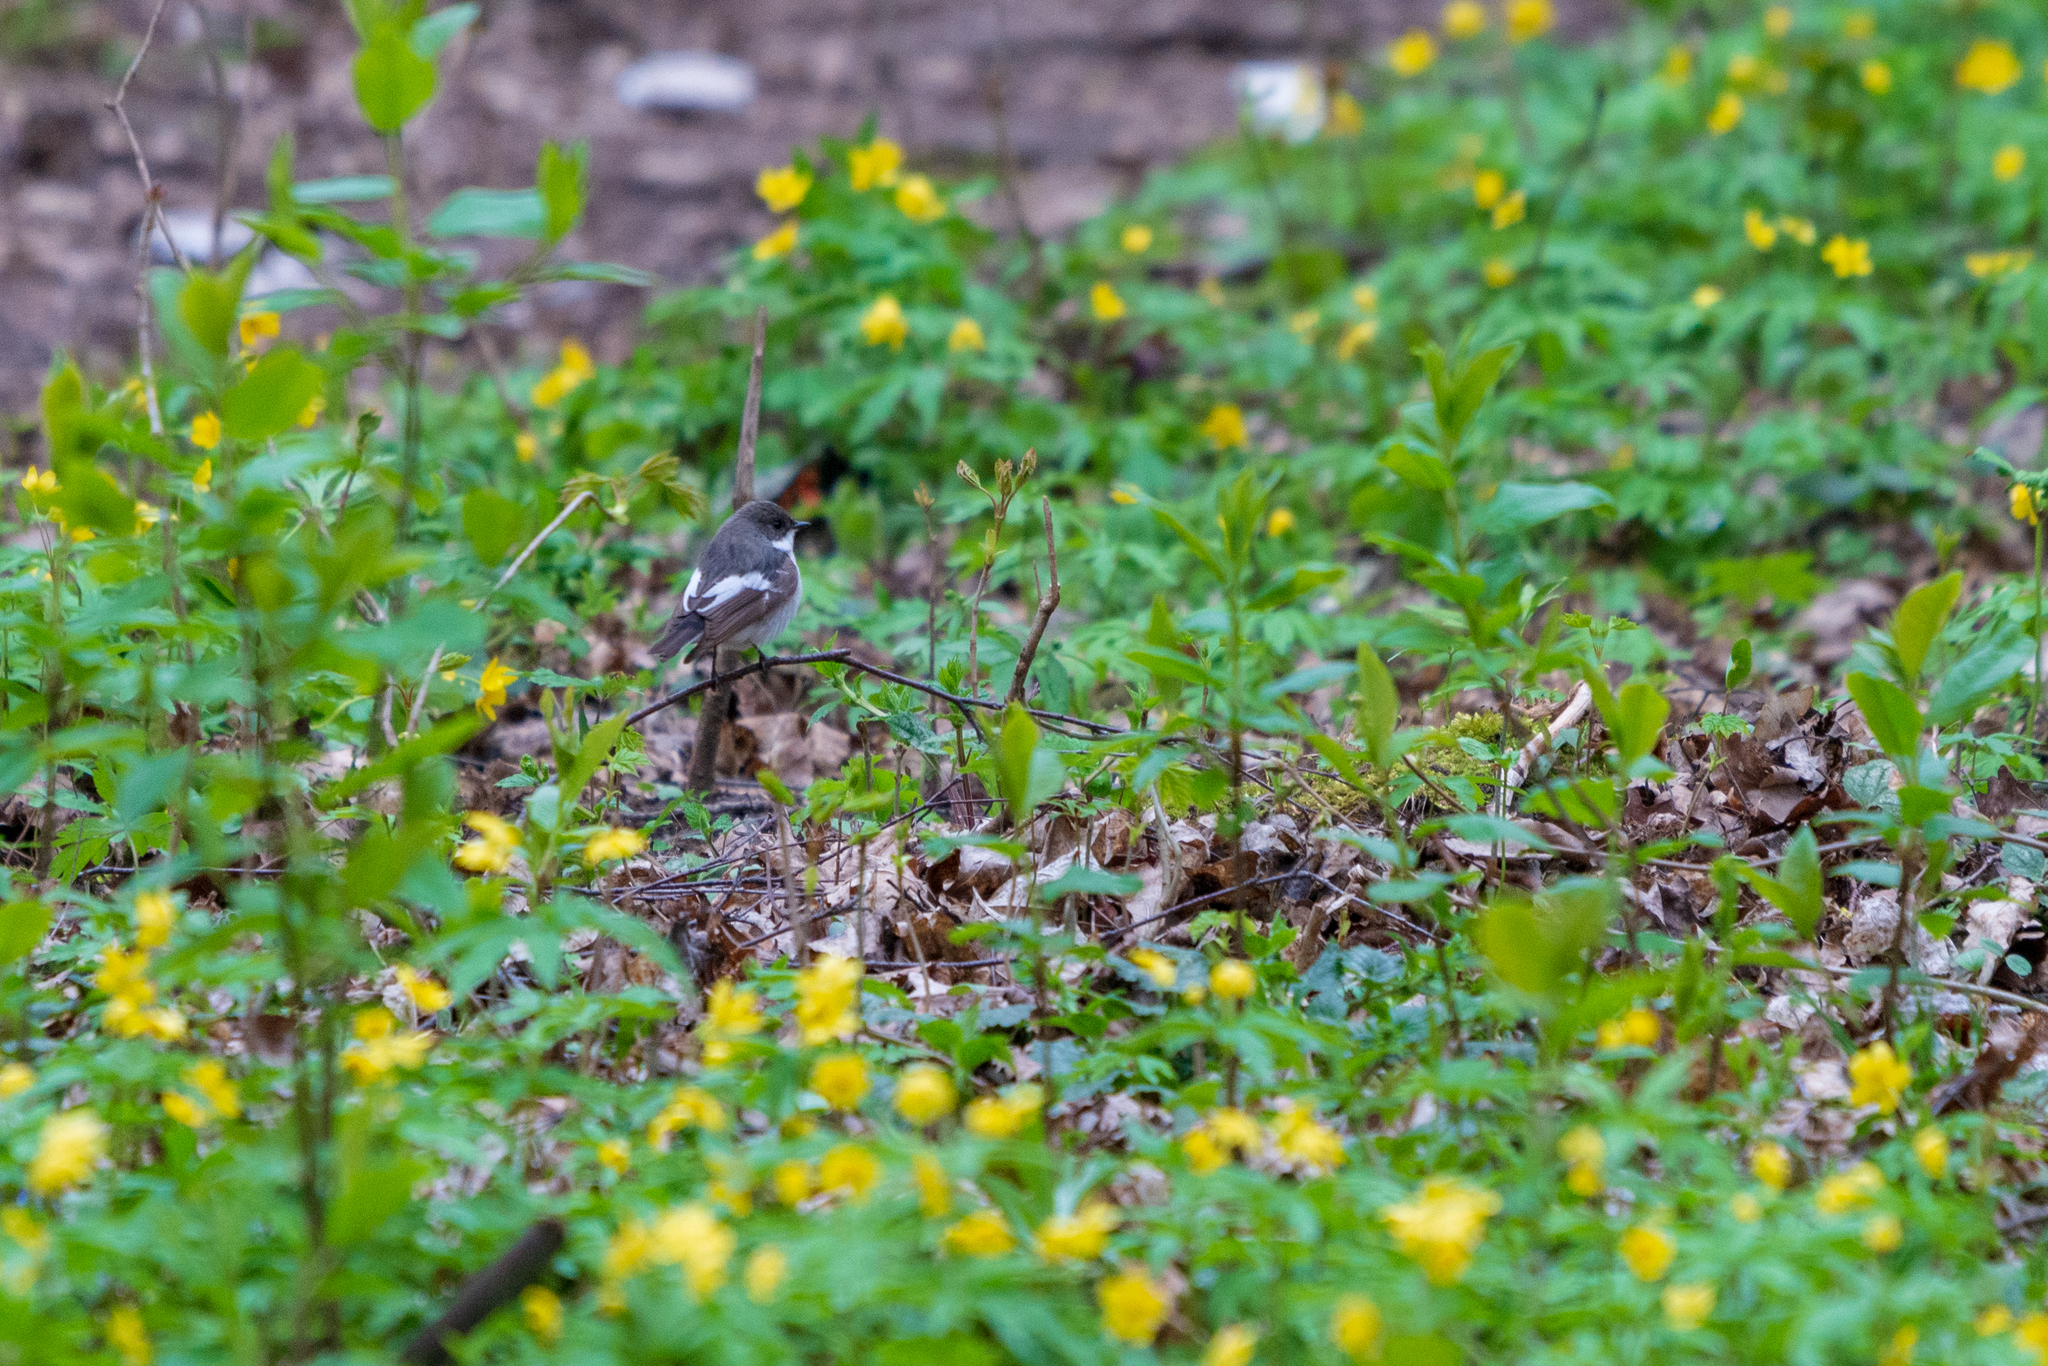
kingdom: Animalia
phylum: Chordata
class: Aves
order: Passeriformes
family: Muscicapidae
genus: Ficedula
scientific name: Ficedula hypoleuca
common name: European pied flycatcher
